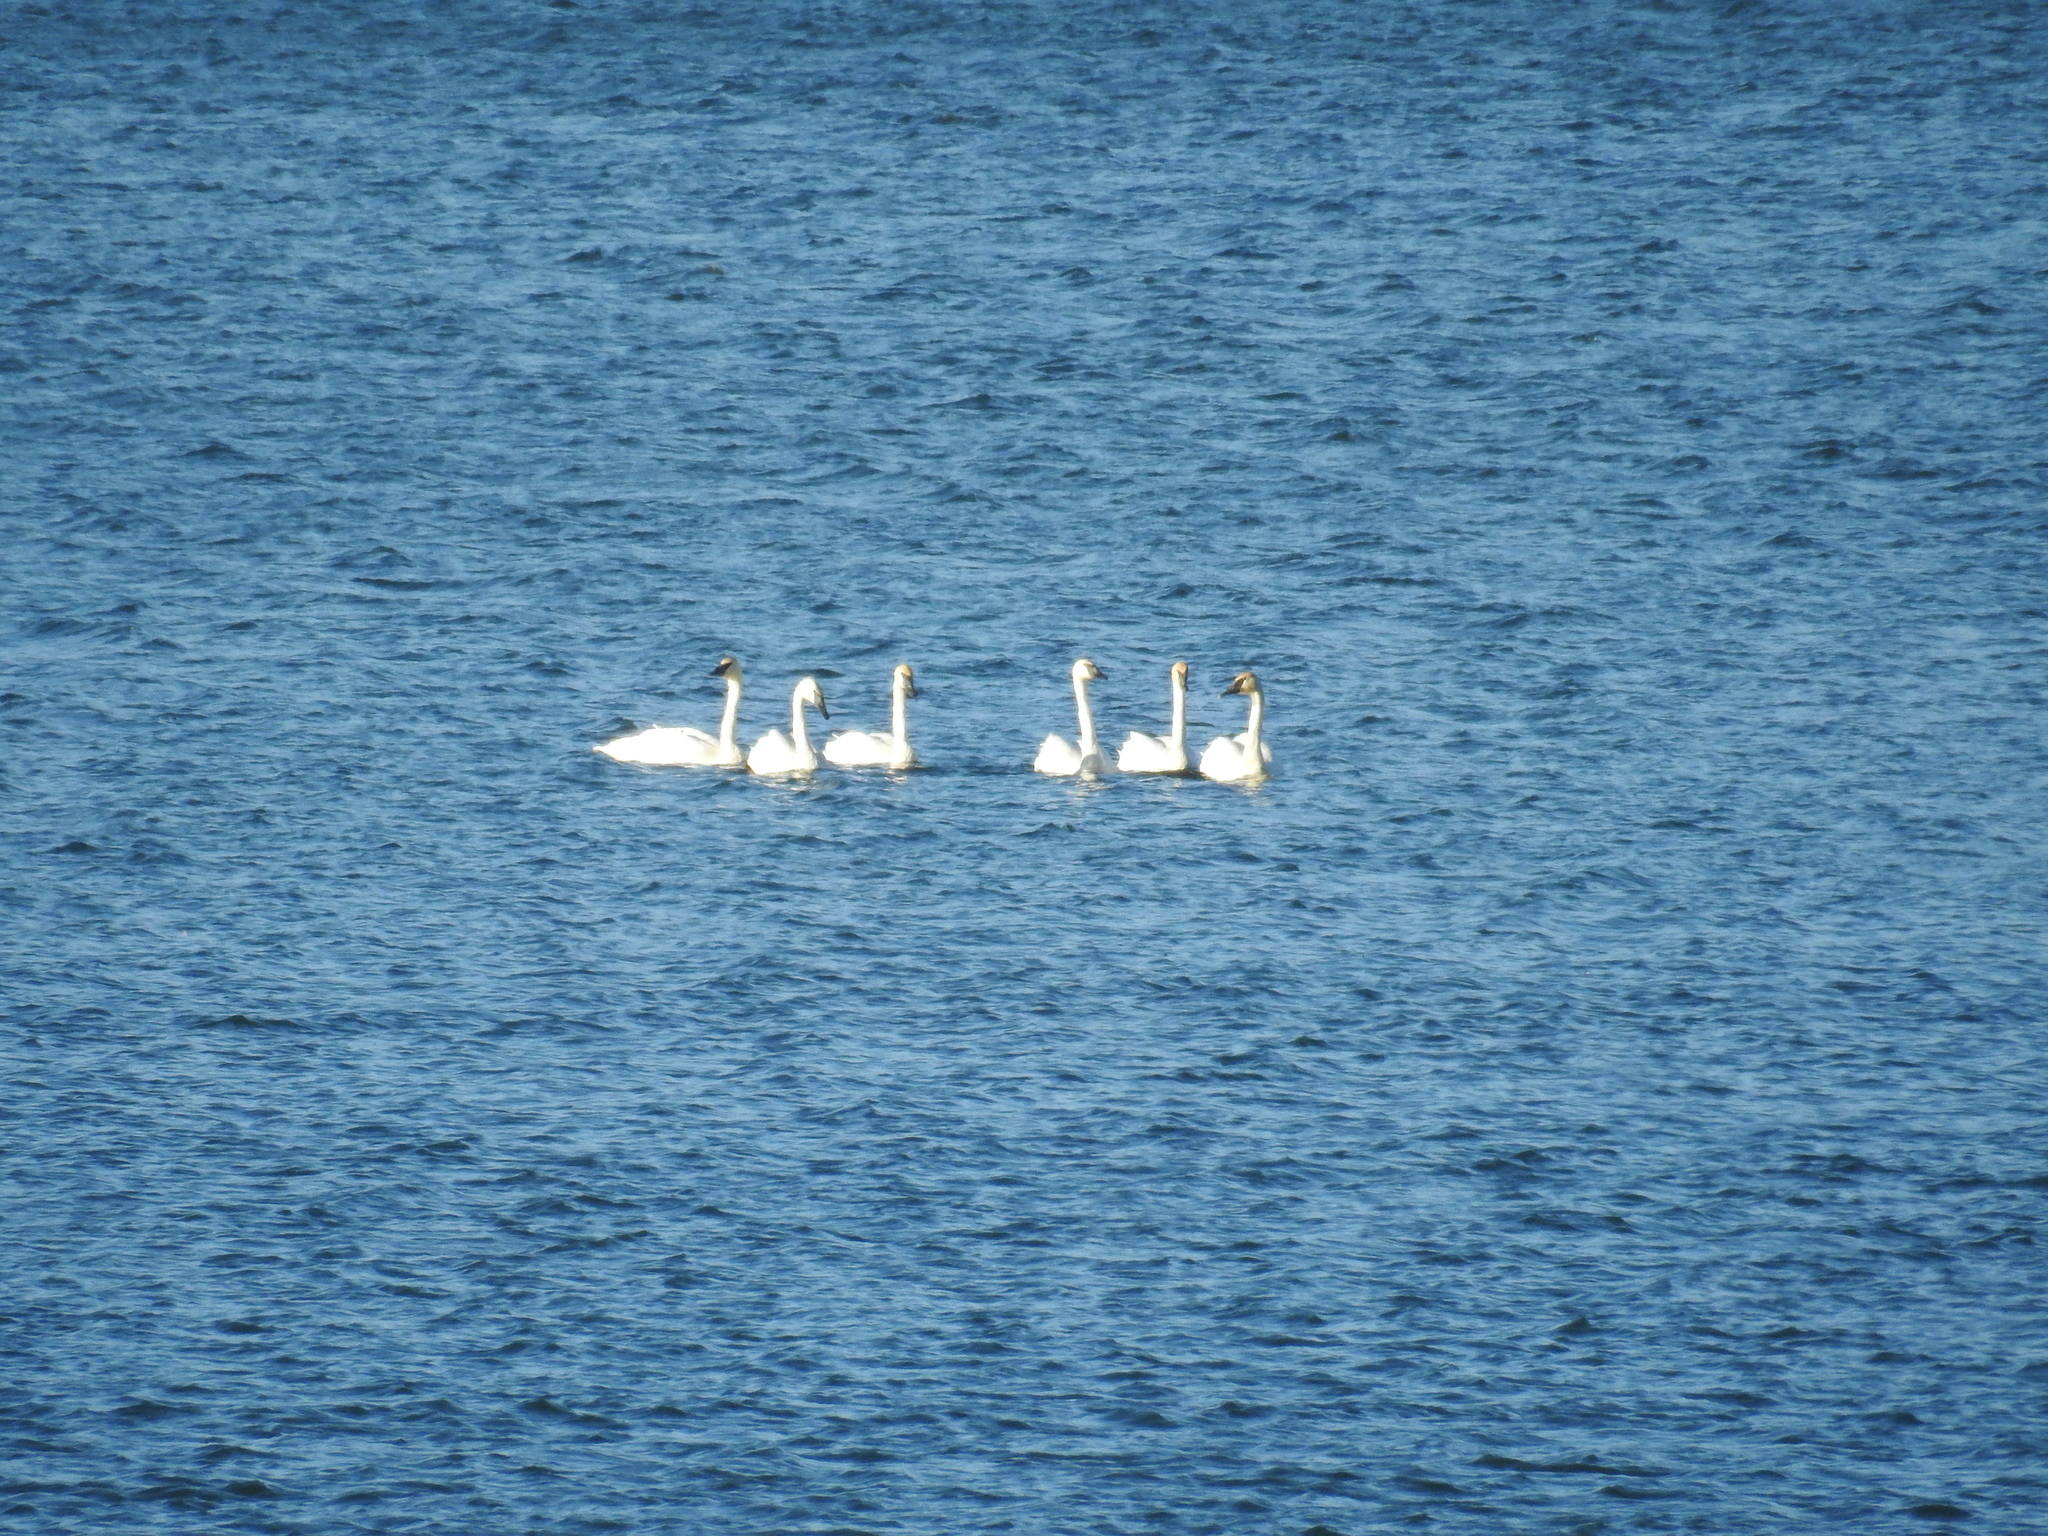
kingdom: Animalia
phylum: Chordata
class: Aves
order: Anseriformes
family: Anatidae
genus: Cygnus
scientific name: Cygnus buccinator
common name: Trumpeter swan
